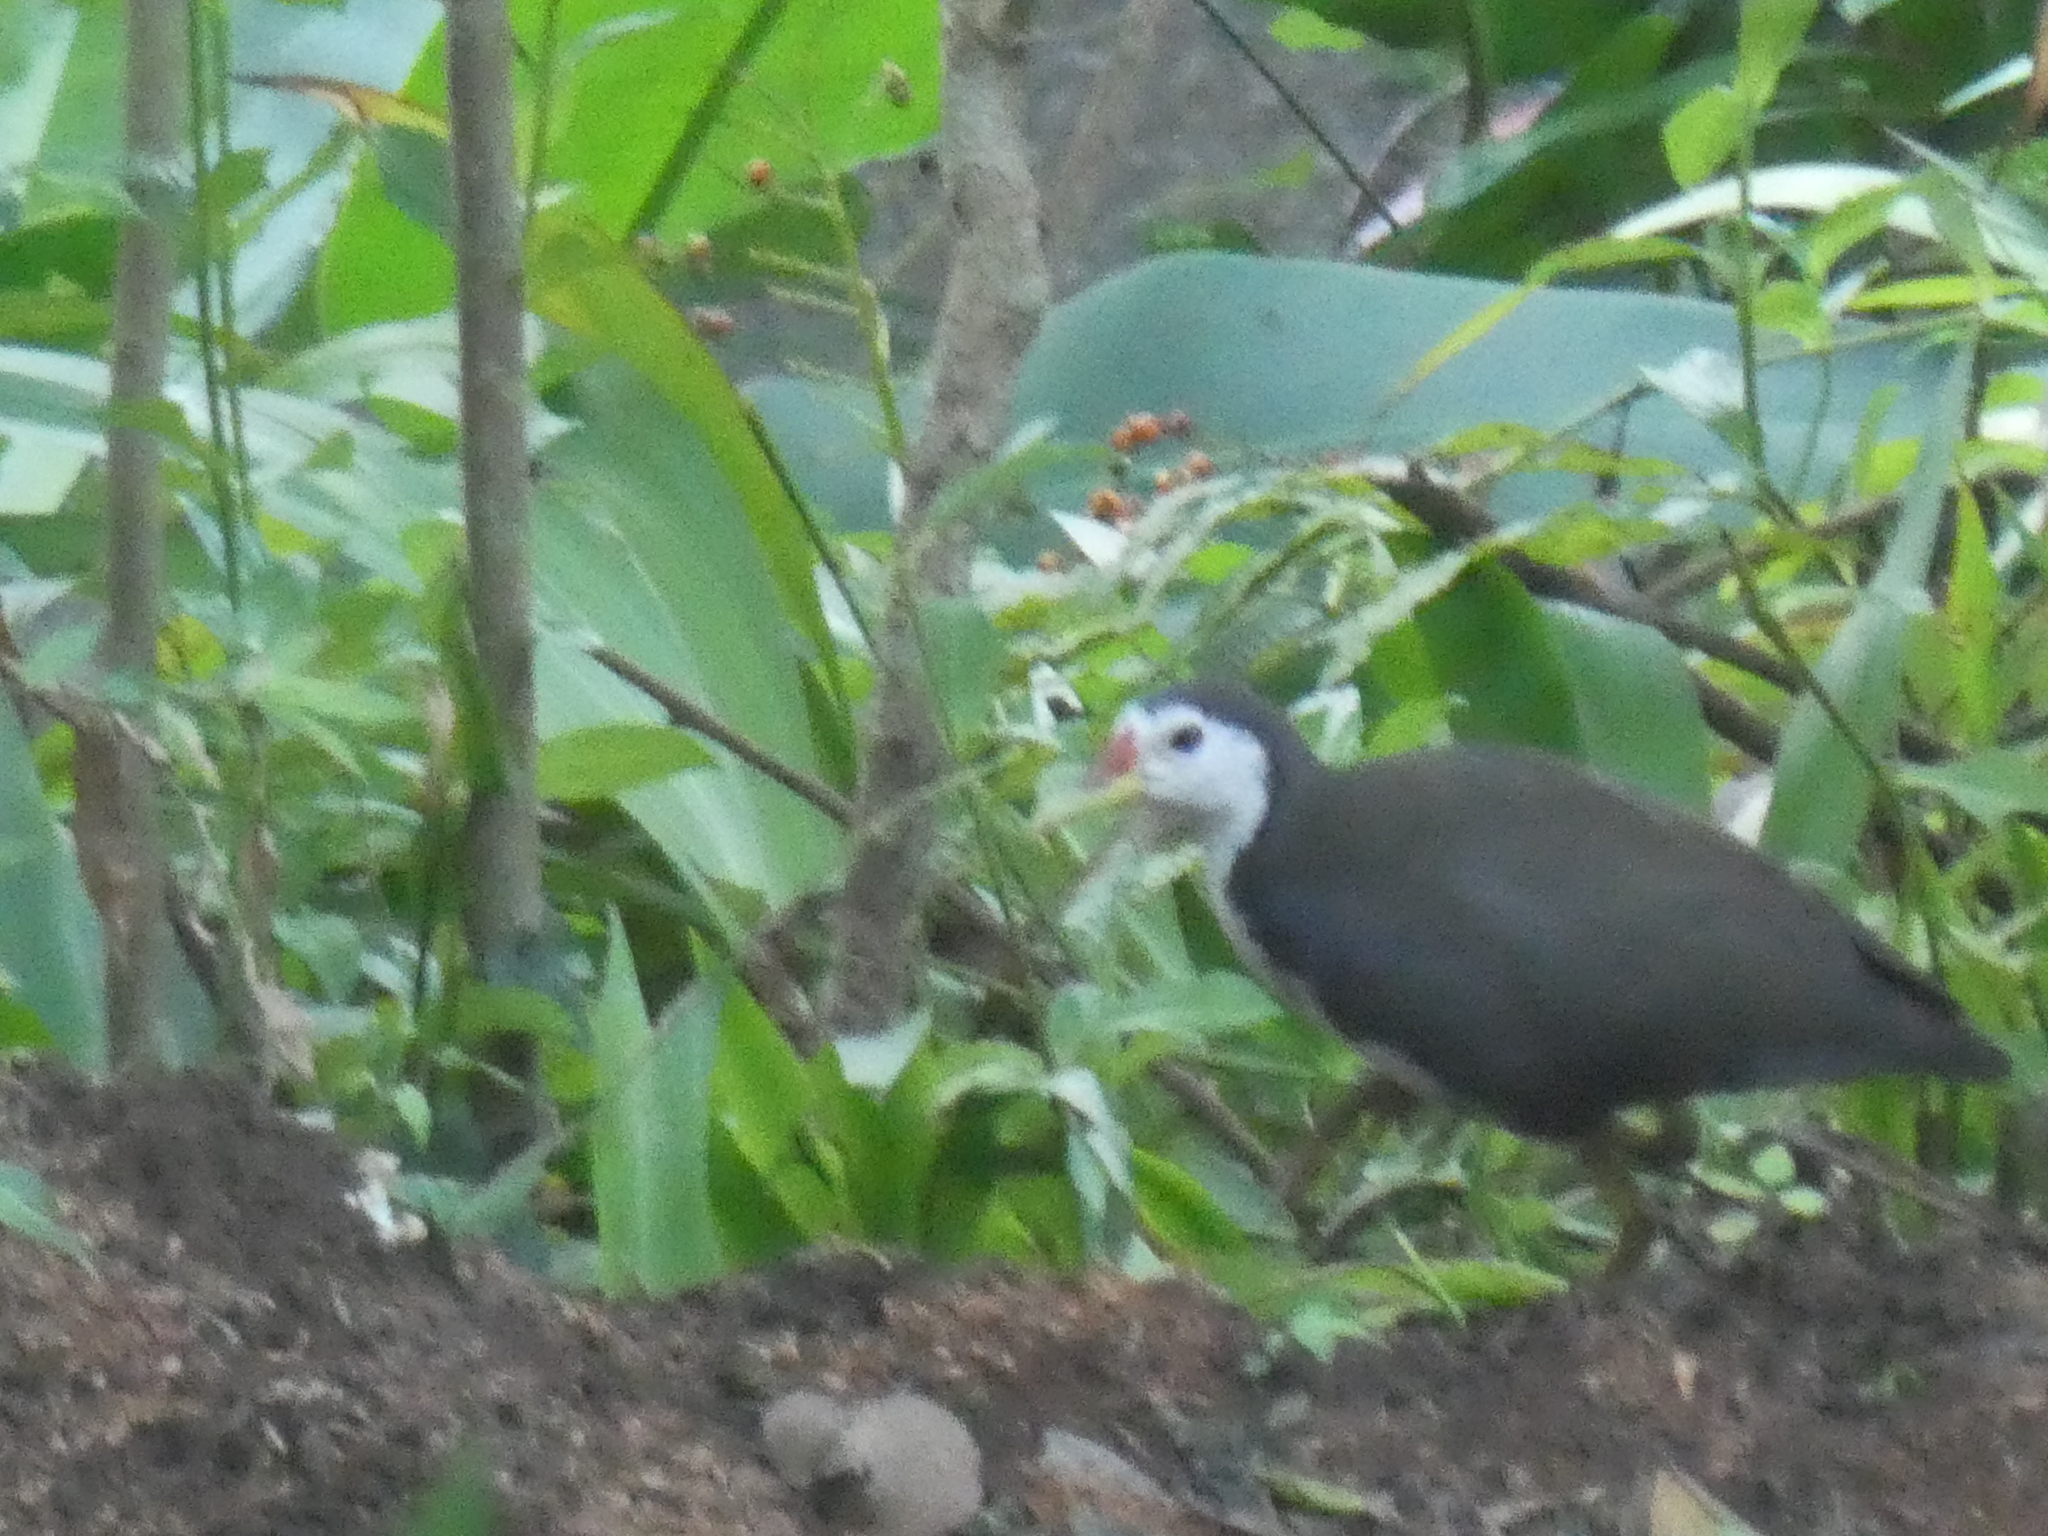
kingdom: Animalia
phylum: Chordata
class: Aves
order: Gruiformes
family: Rallidae
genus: Amaurornis
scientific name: Amaurornis phoenicurus
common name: White-breasted waterhen
